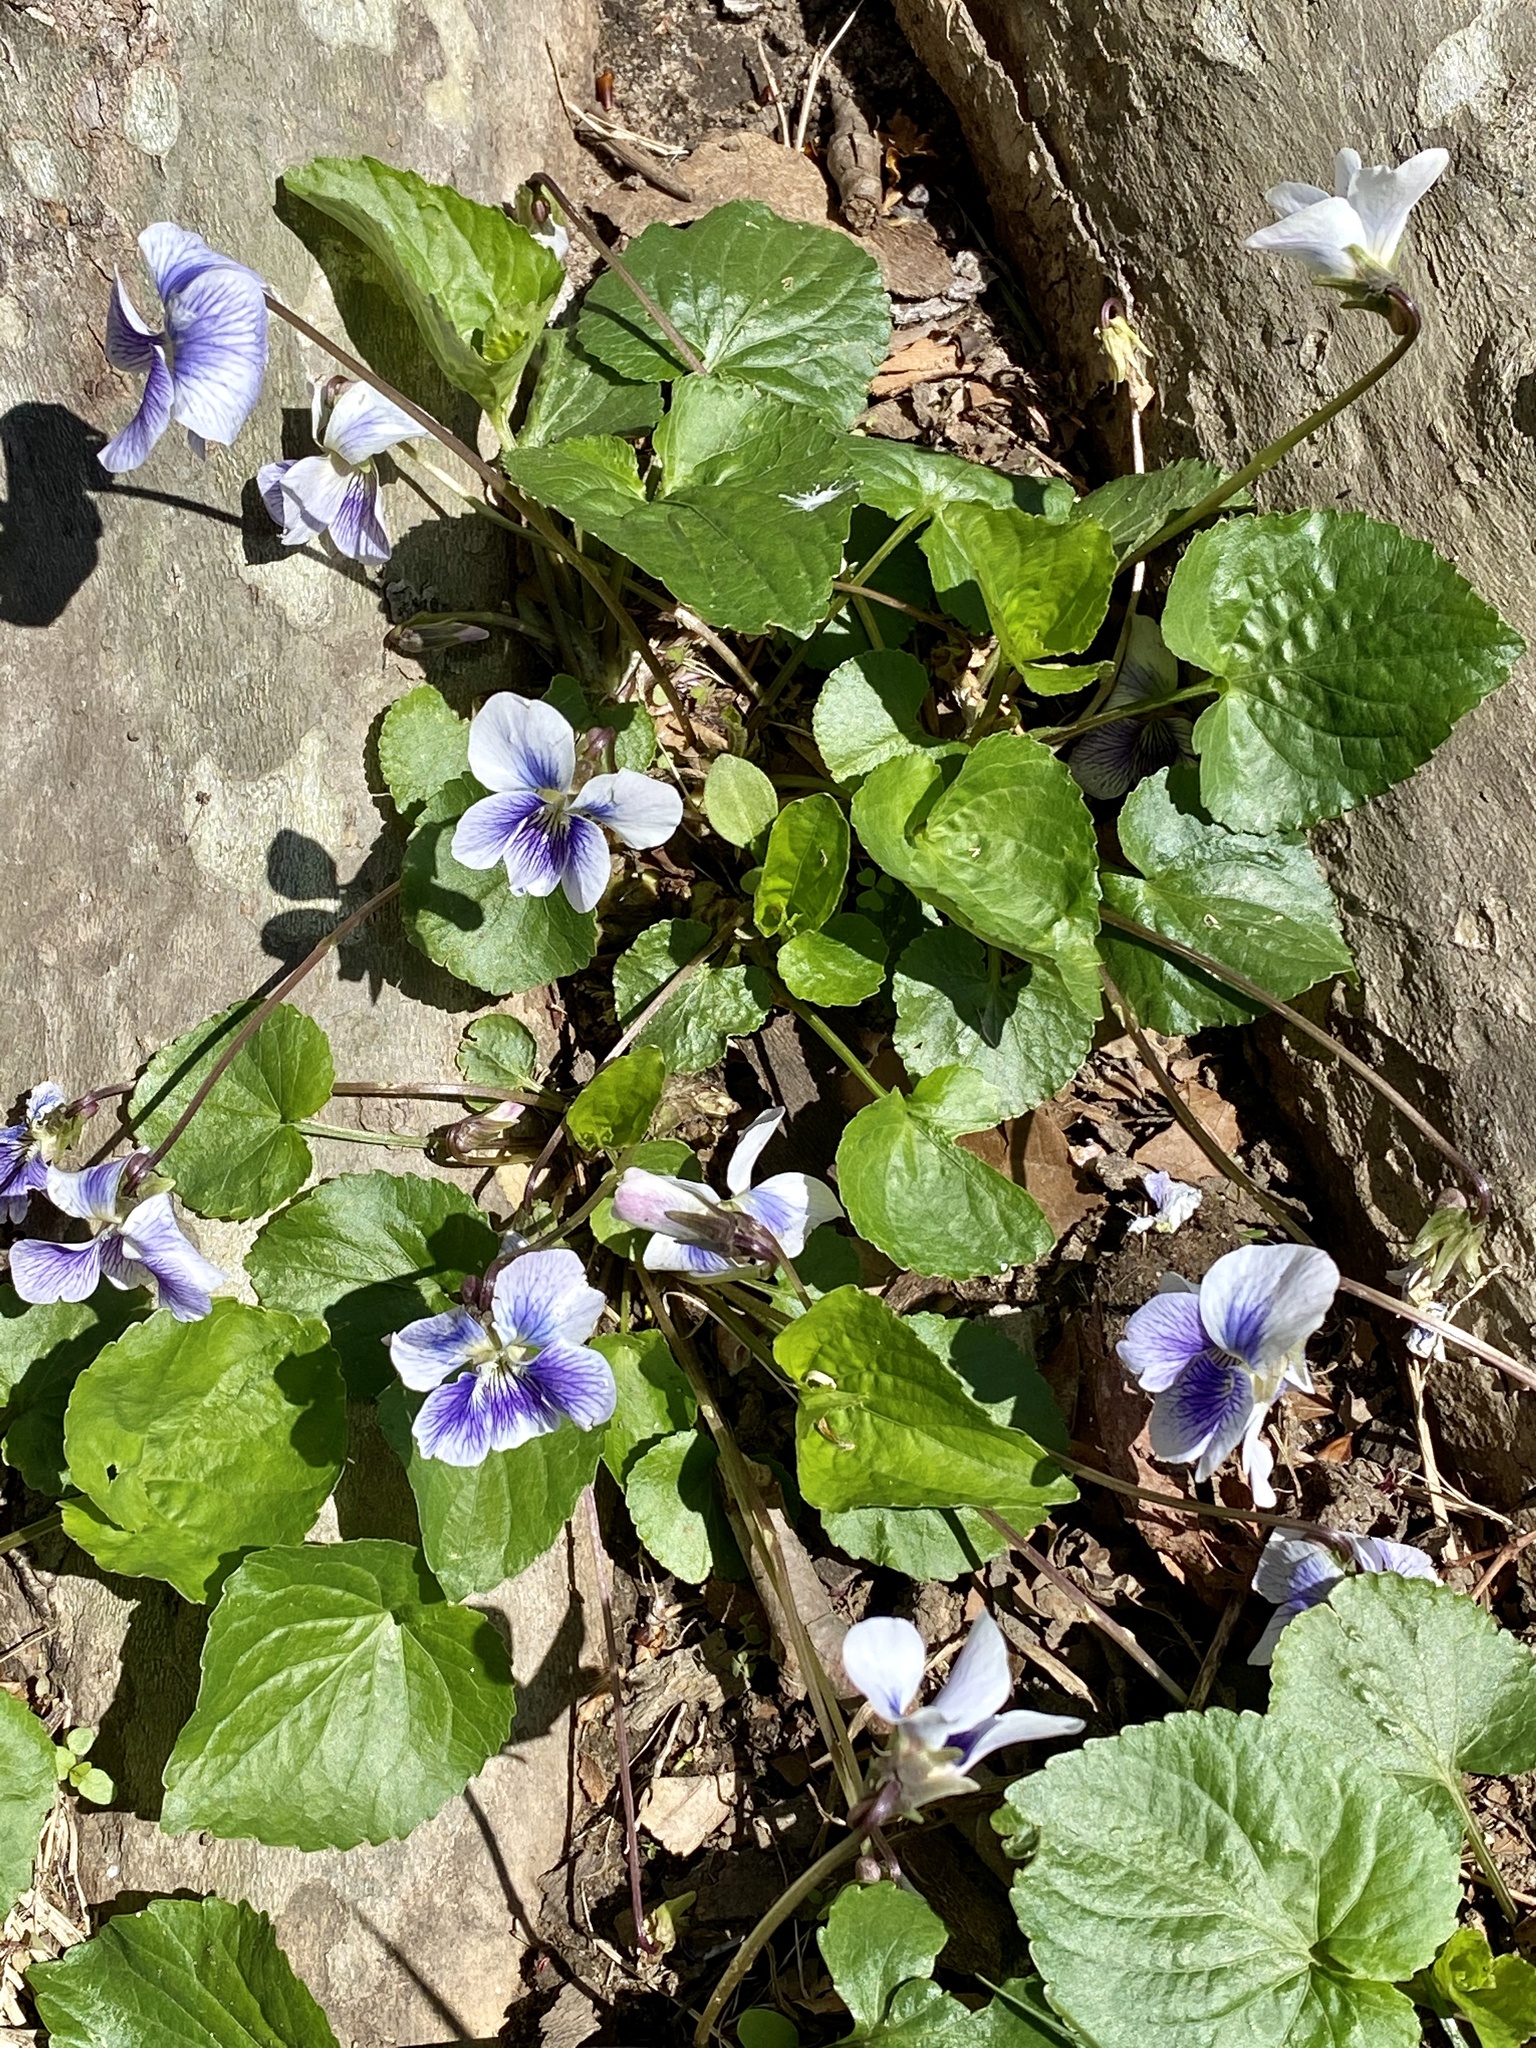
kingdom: Plantae
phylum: Tracheophyta
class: Magnoliopsida
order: Malpighiales
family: Violaceae
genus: Viola
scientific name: Viola sororia
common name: Dooryard violet
